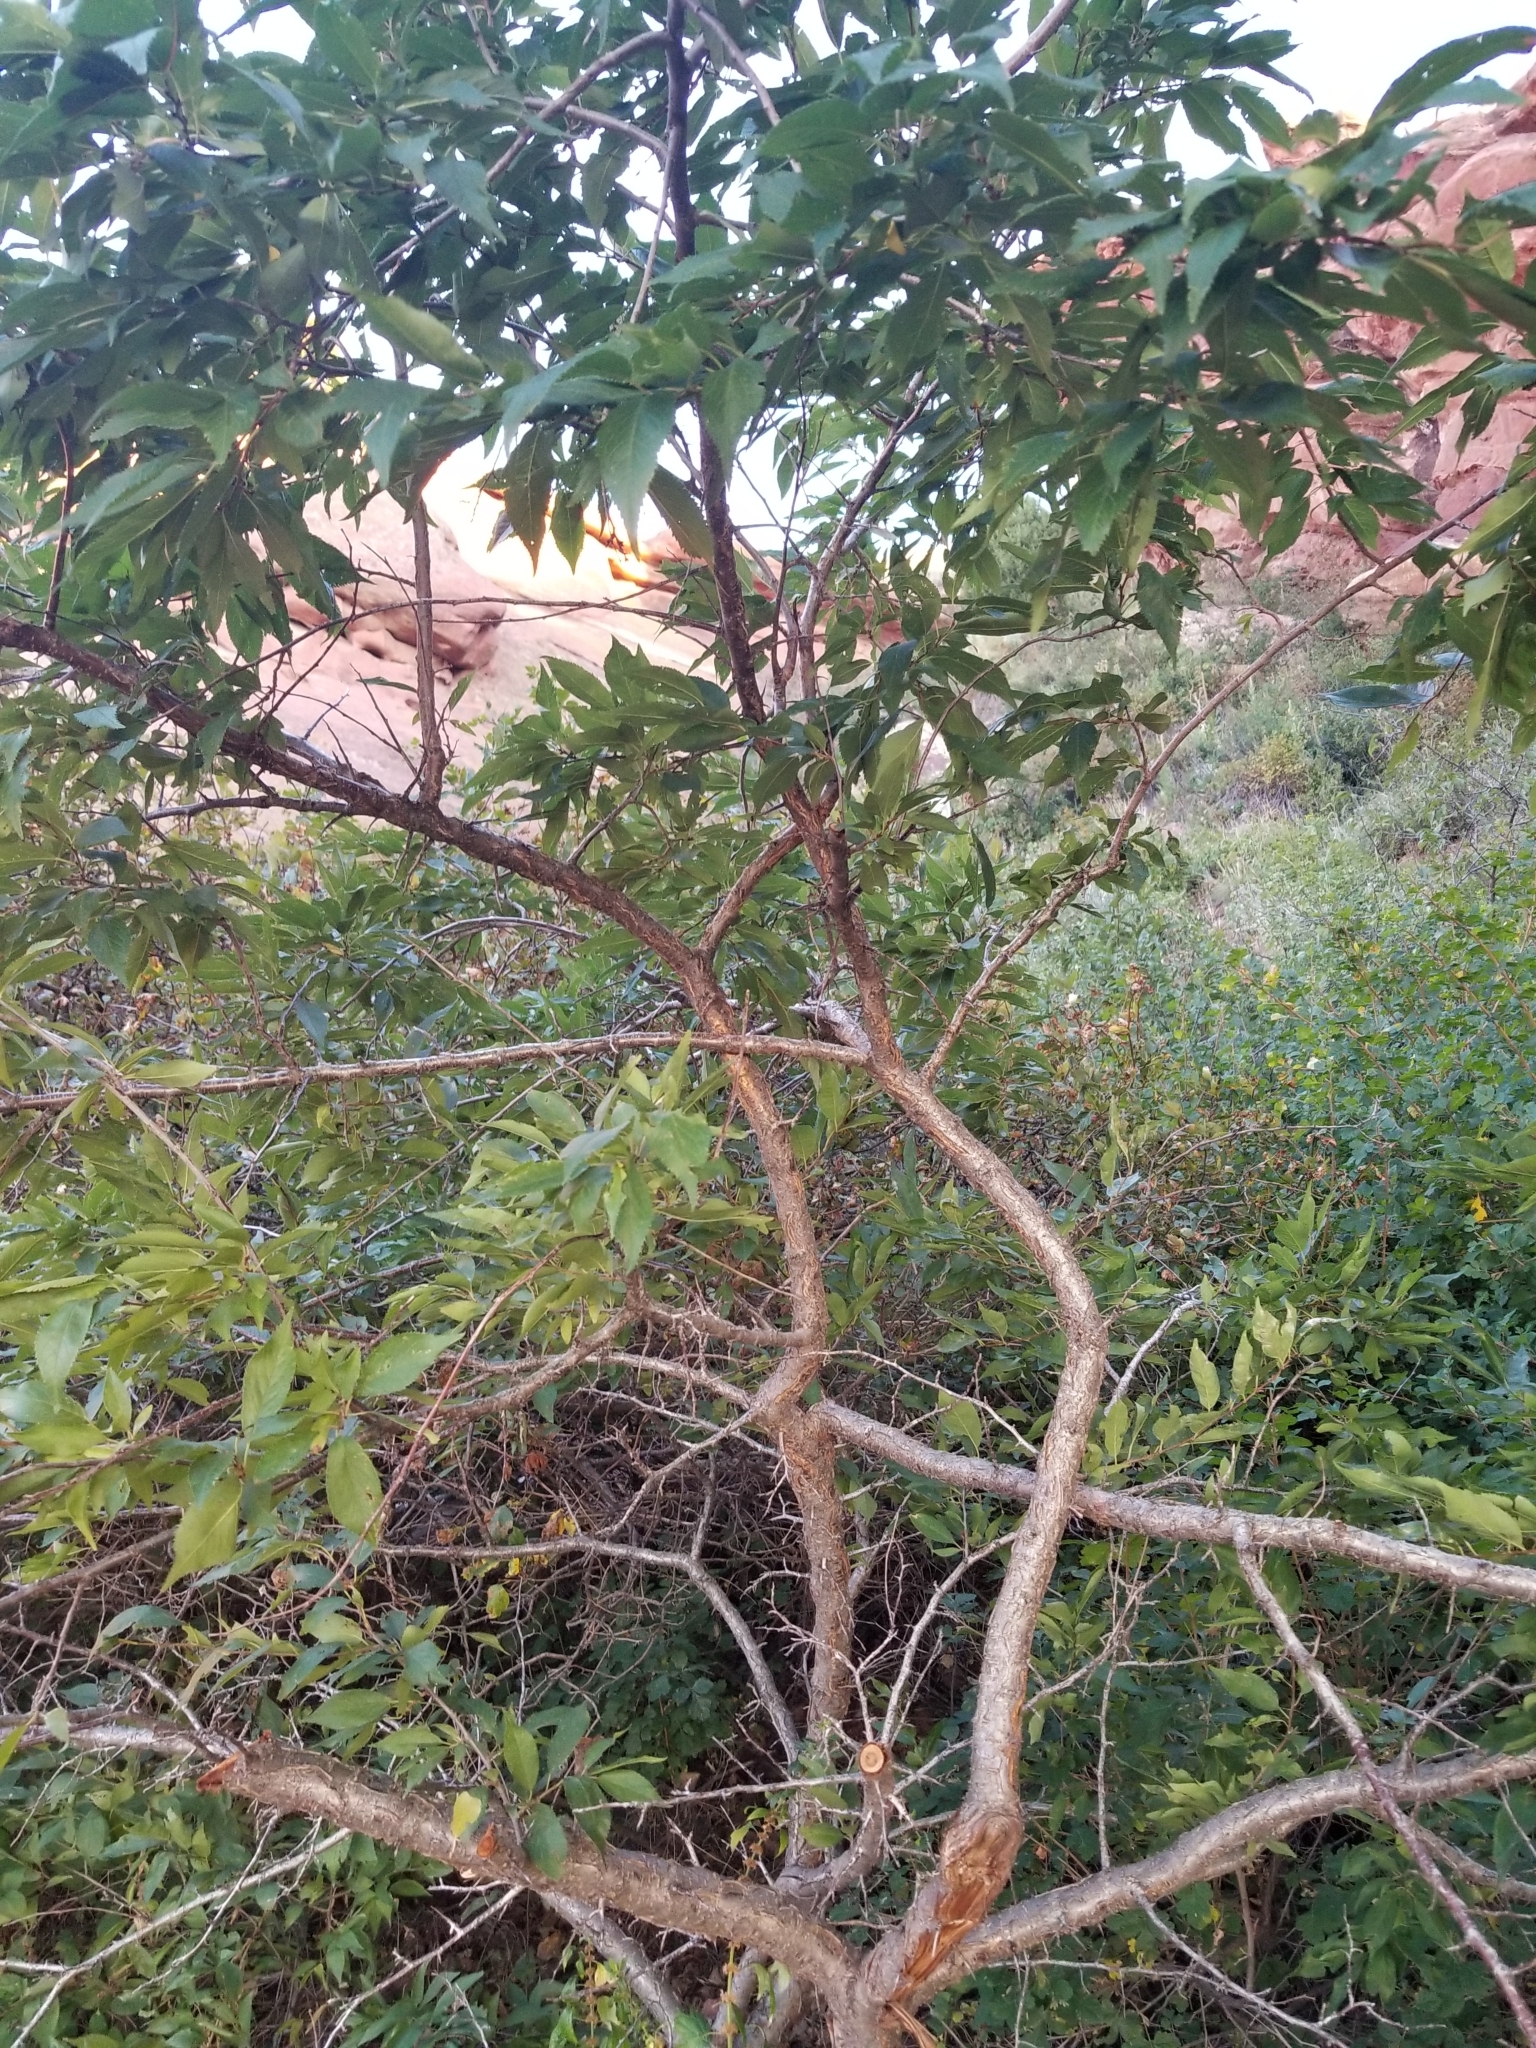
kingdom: Plantae
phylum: Tracheophyta
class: Magnoliopsida
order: Rosales
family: Rosaceae
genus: Prunus
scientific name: Prunus americana
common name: American plum
